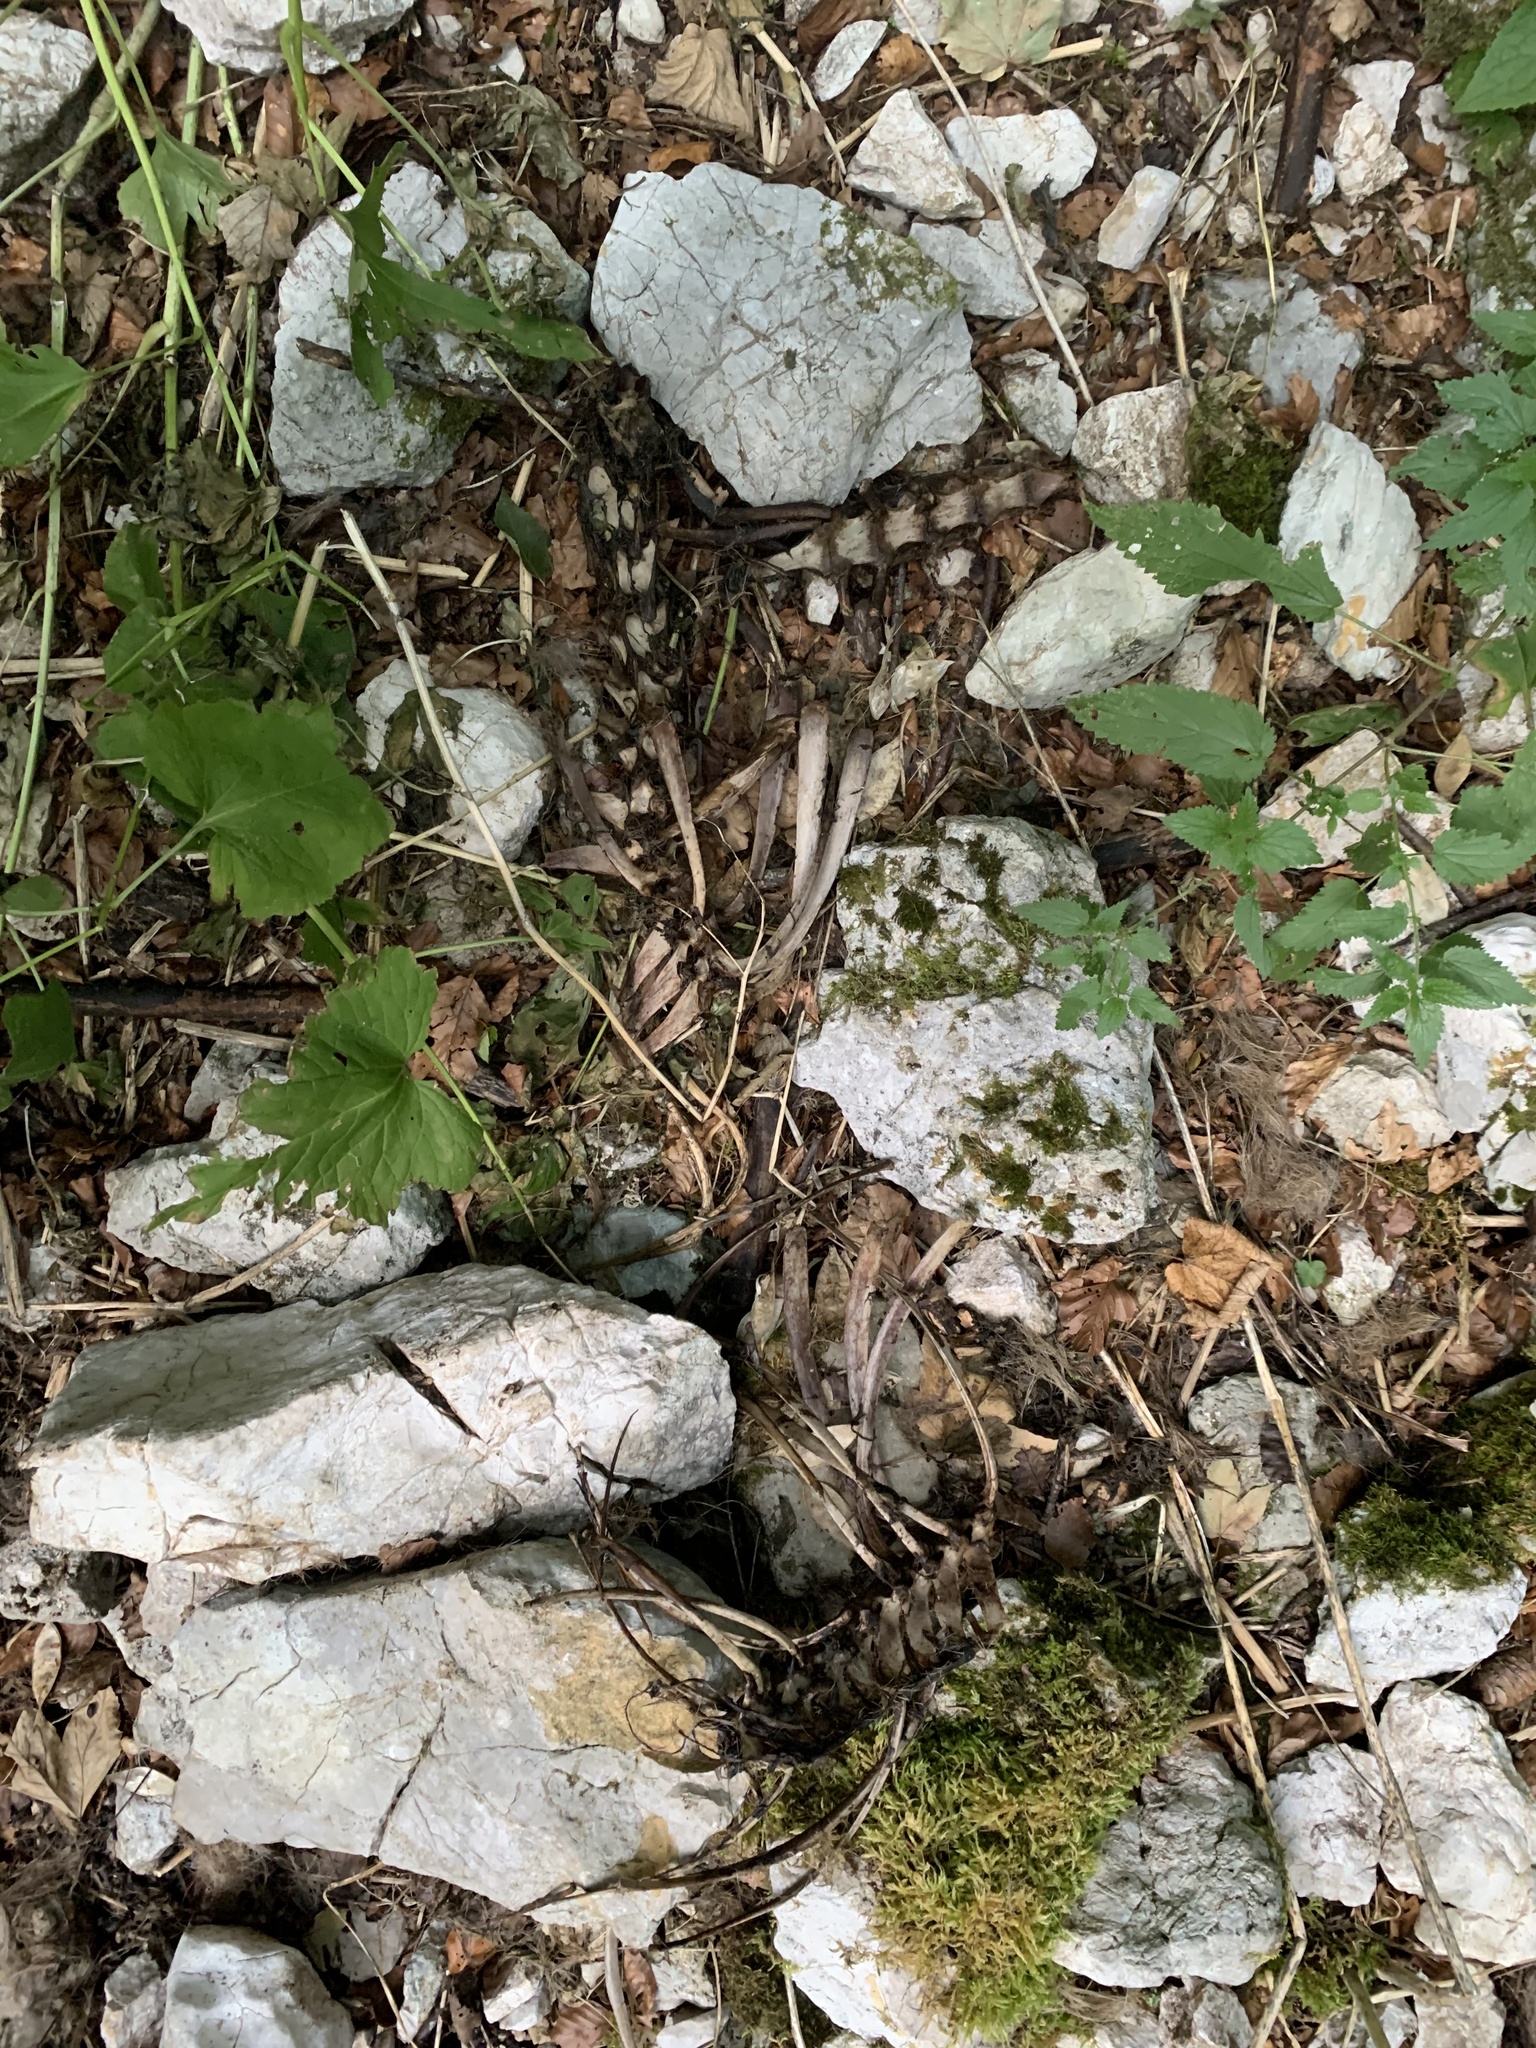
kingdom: Animalia
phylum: Chordata
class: Mammalia
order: Artiodactyla
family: Bovidae
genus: Rupicapra
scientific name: Rupicapra rupicapra
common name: Chamois
